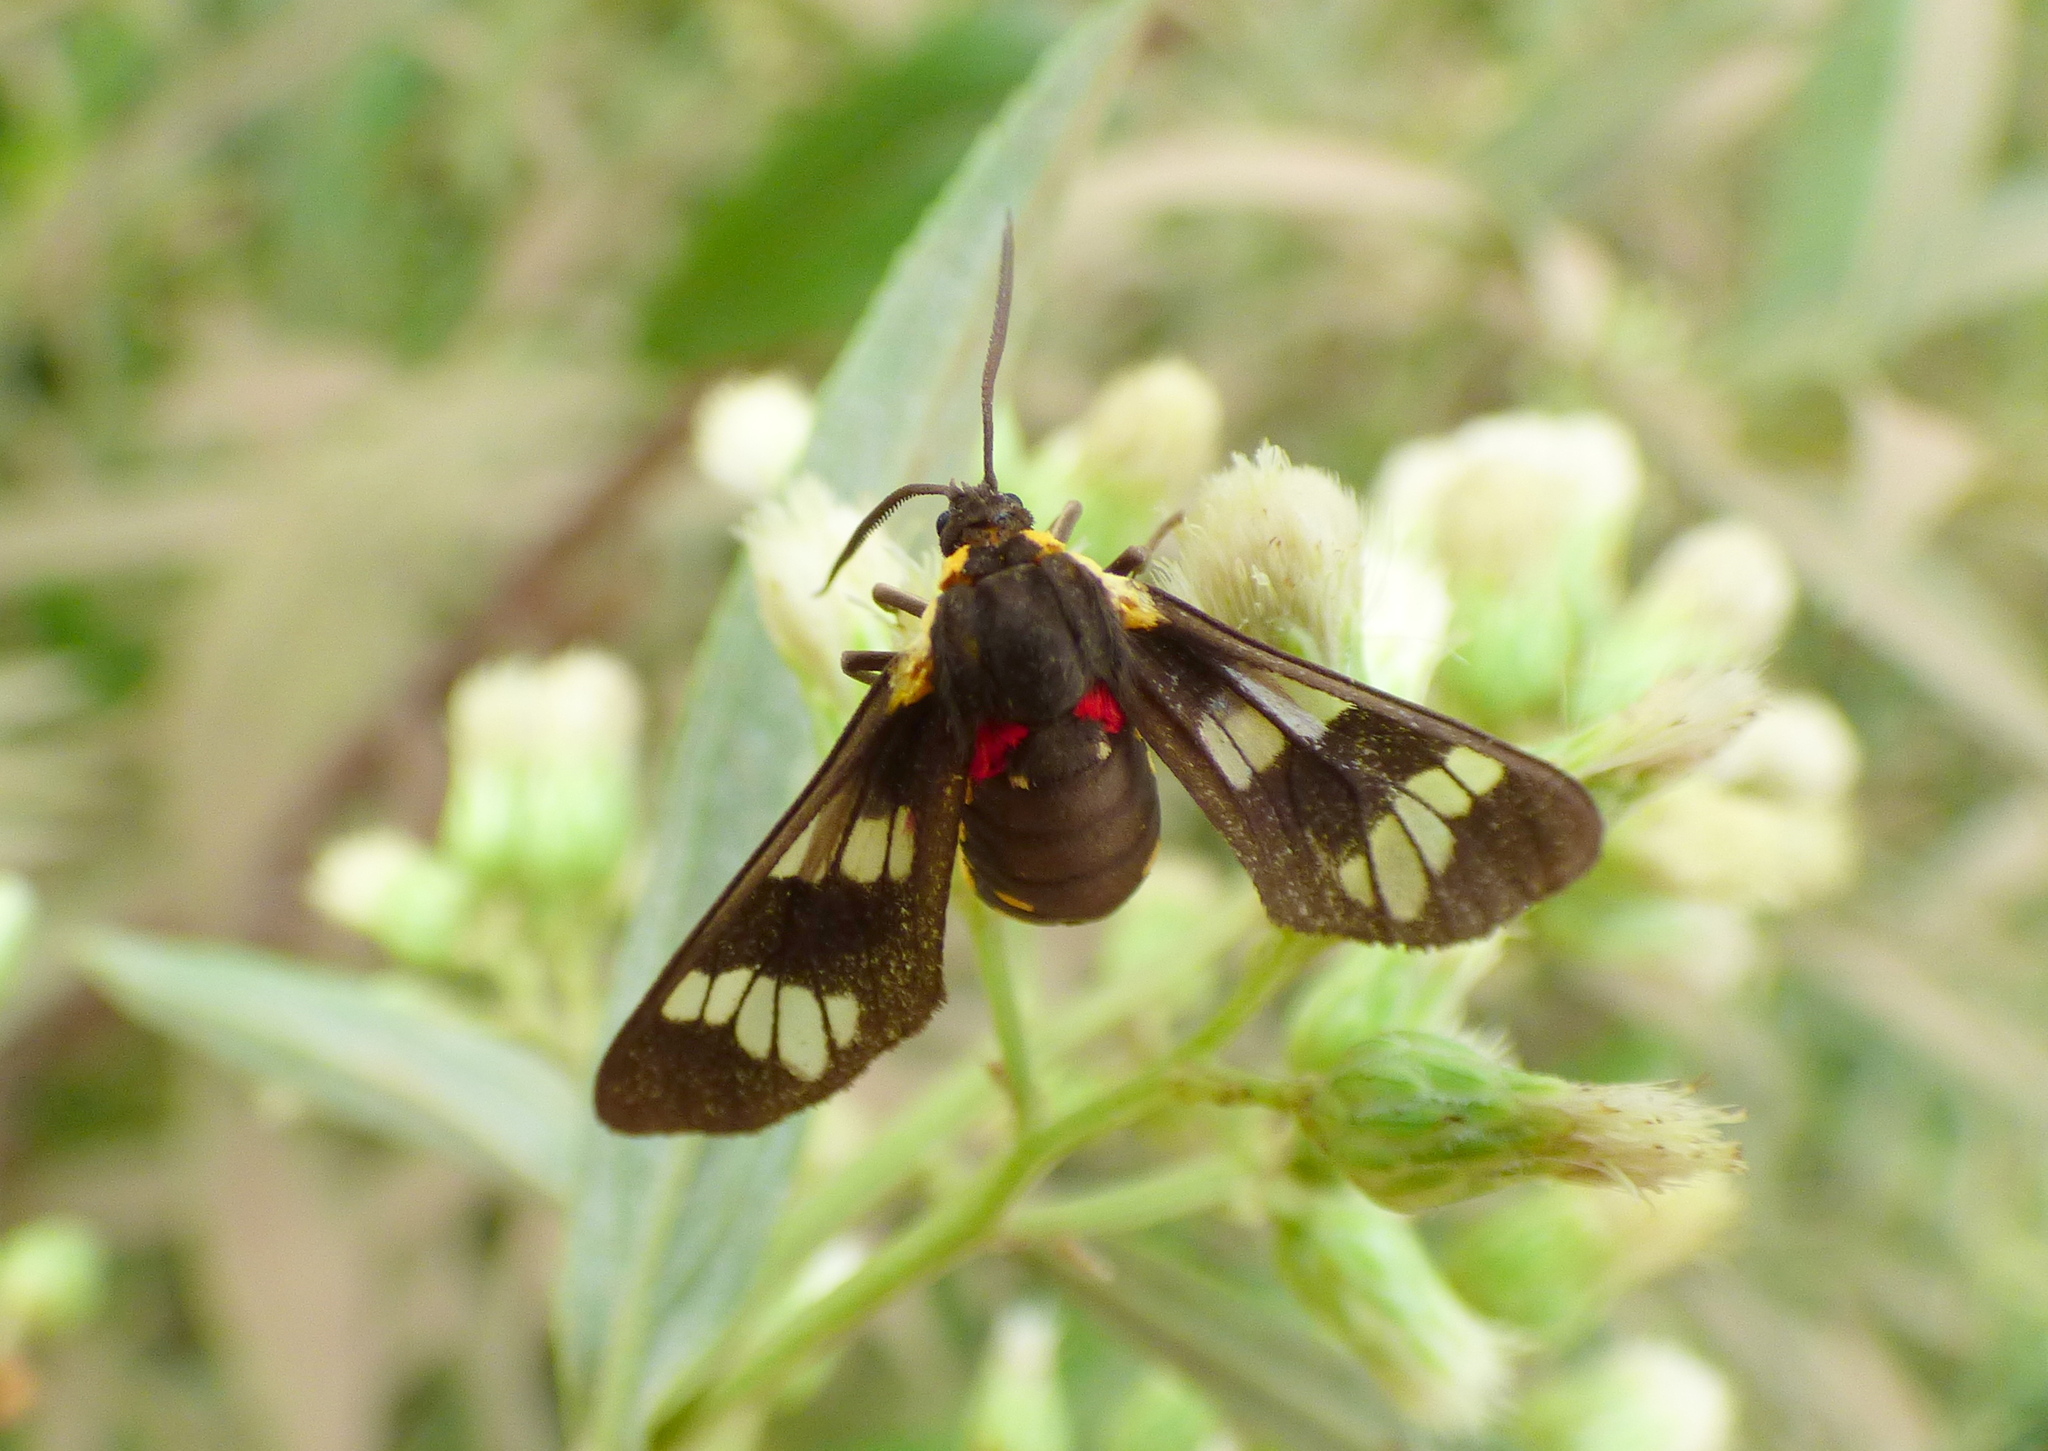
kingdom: Animalia
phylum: Arthropoda
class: Insecta
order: Lepidoptera
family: Erebidae
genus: Eurata
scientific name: Eurata hermione
